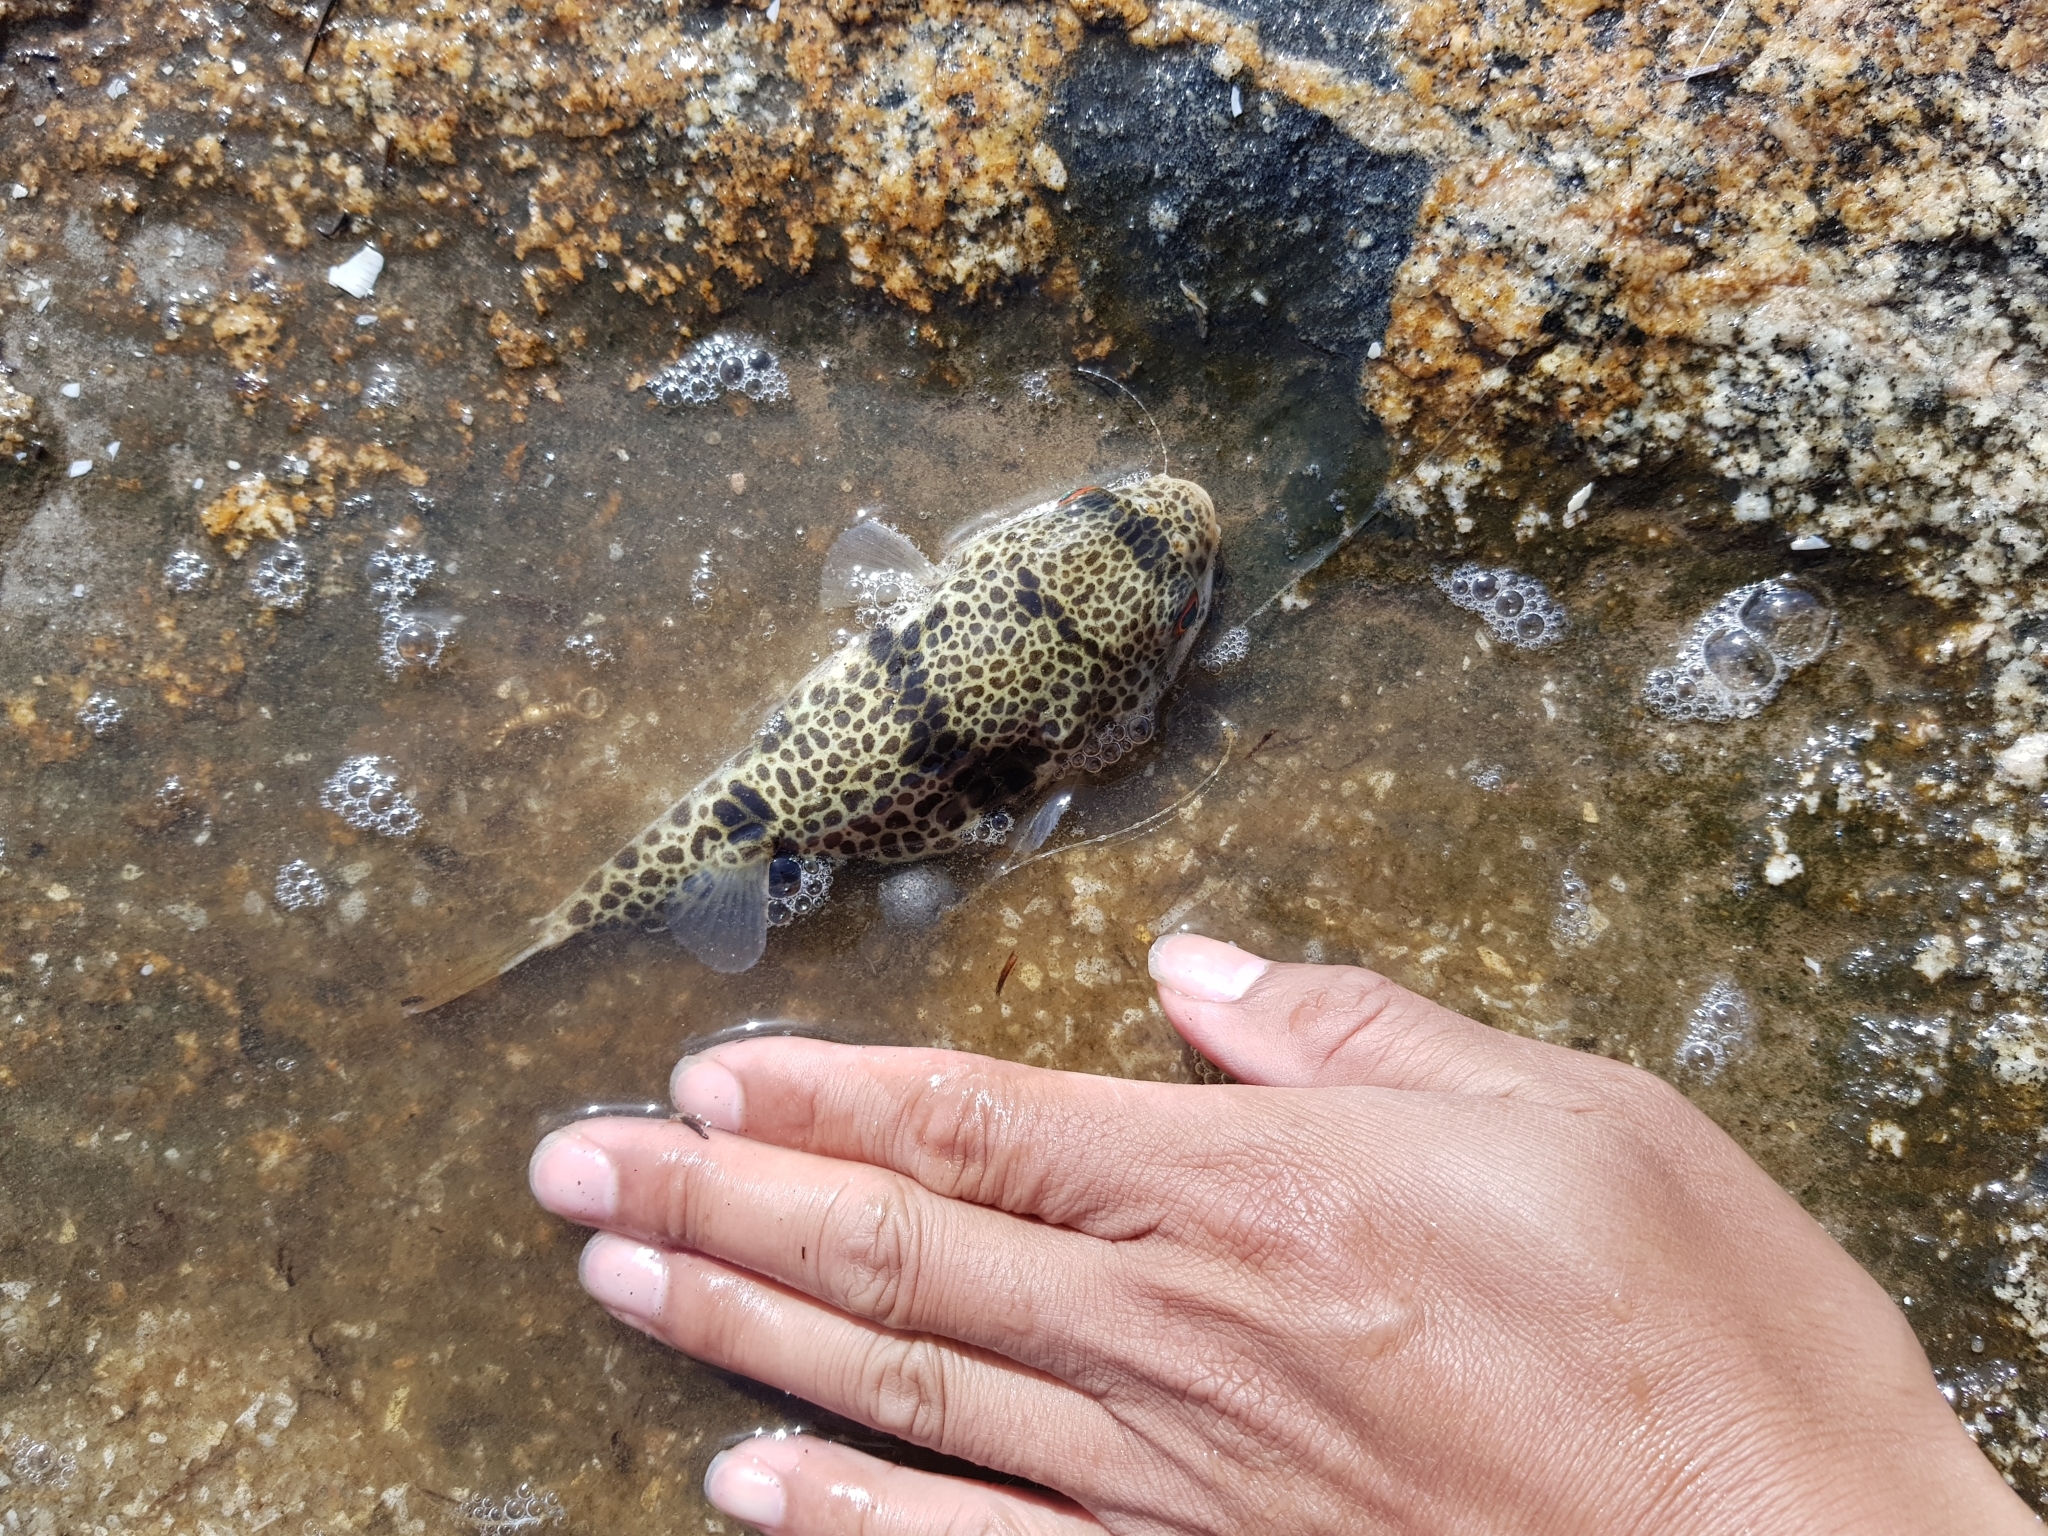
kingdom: Animalia
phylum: Chordata
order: Tetraodontiformes
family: Tetraodontidae
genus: Tetractenos
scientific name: Tetractenos glaber
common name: Smooth toadfish
